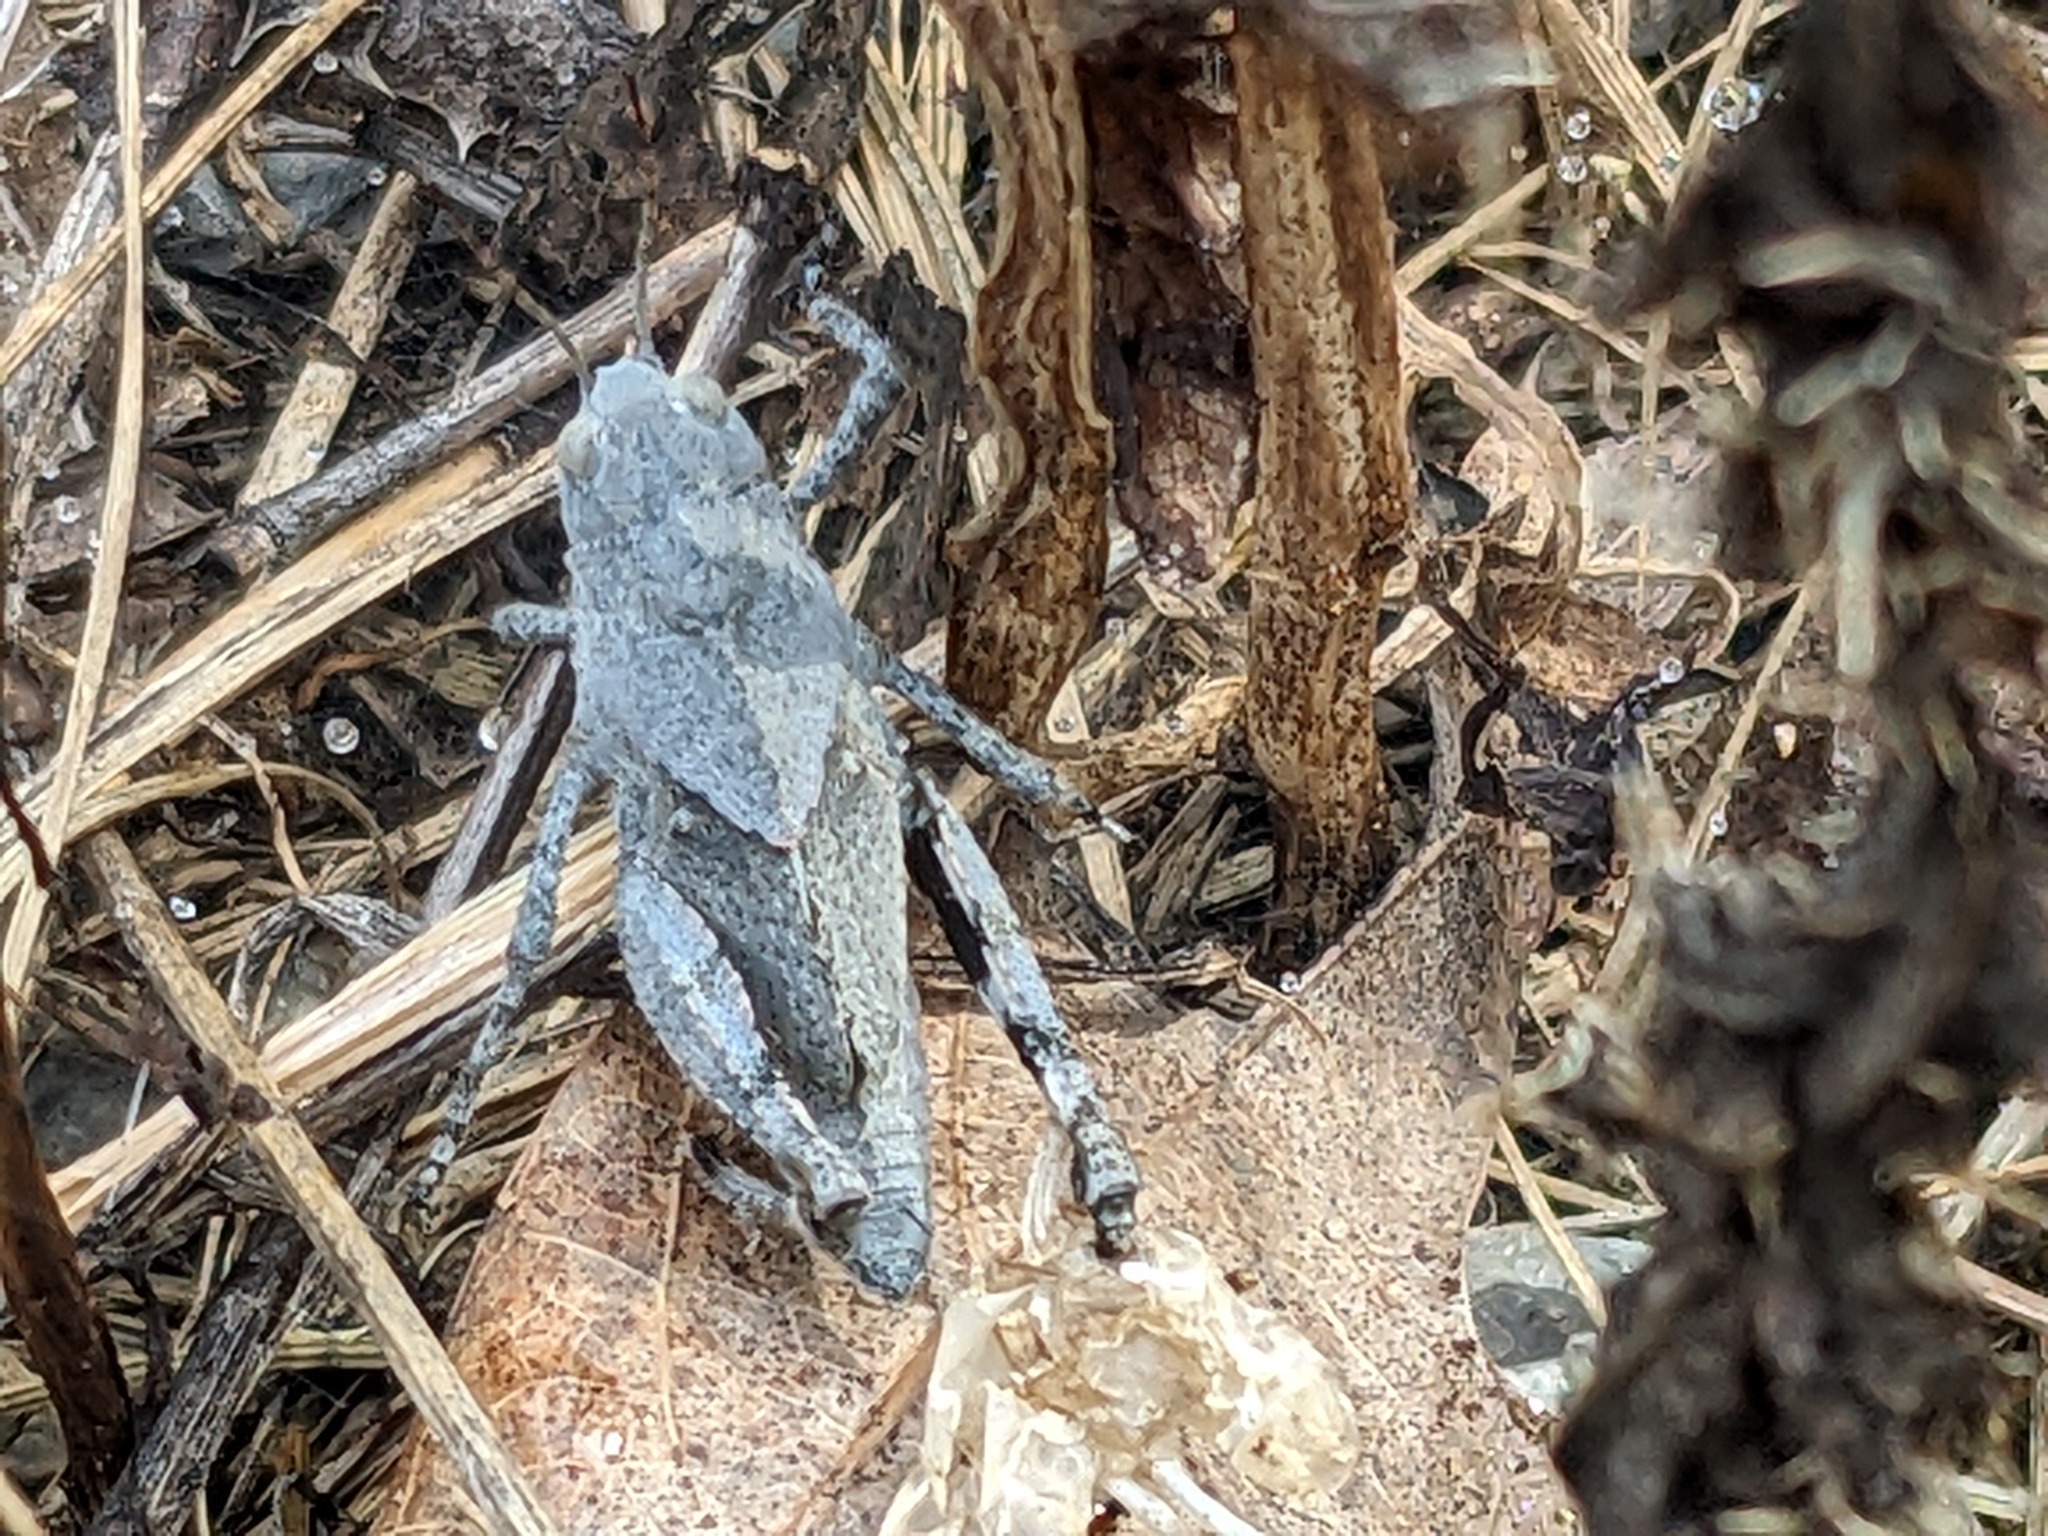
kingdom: Animalia
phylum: Arthropoda
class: Insecta
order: Orthoptera
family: Acrididae
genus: Dissosteira
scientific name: Dissosteira carolina
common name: Carolina grasshopper
